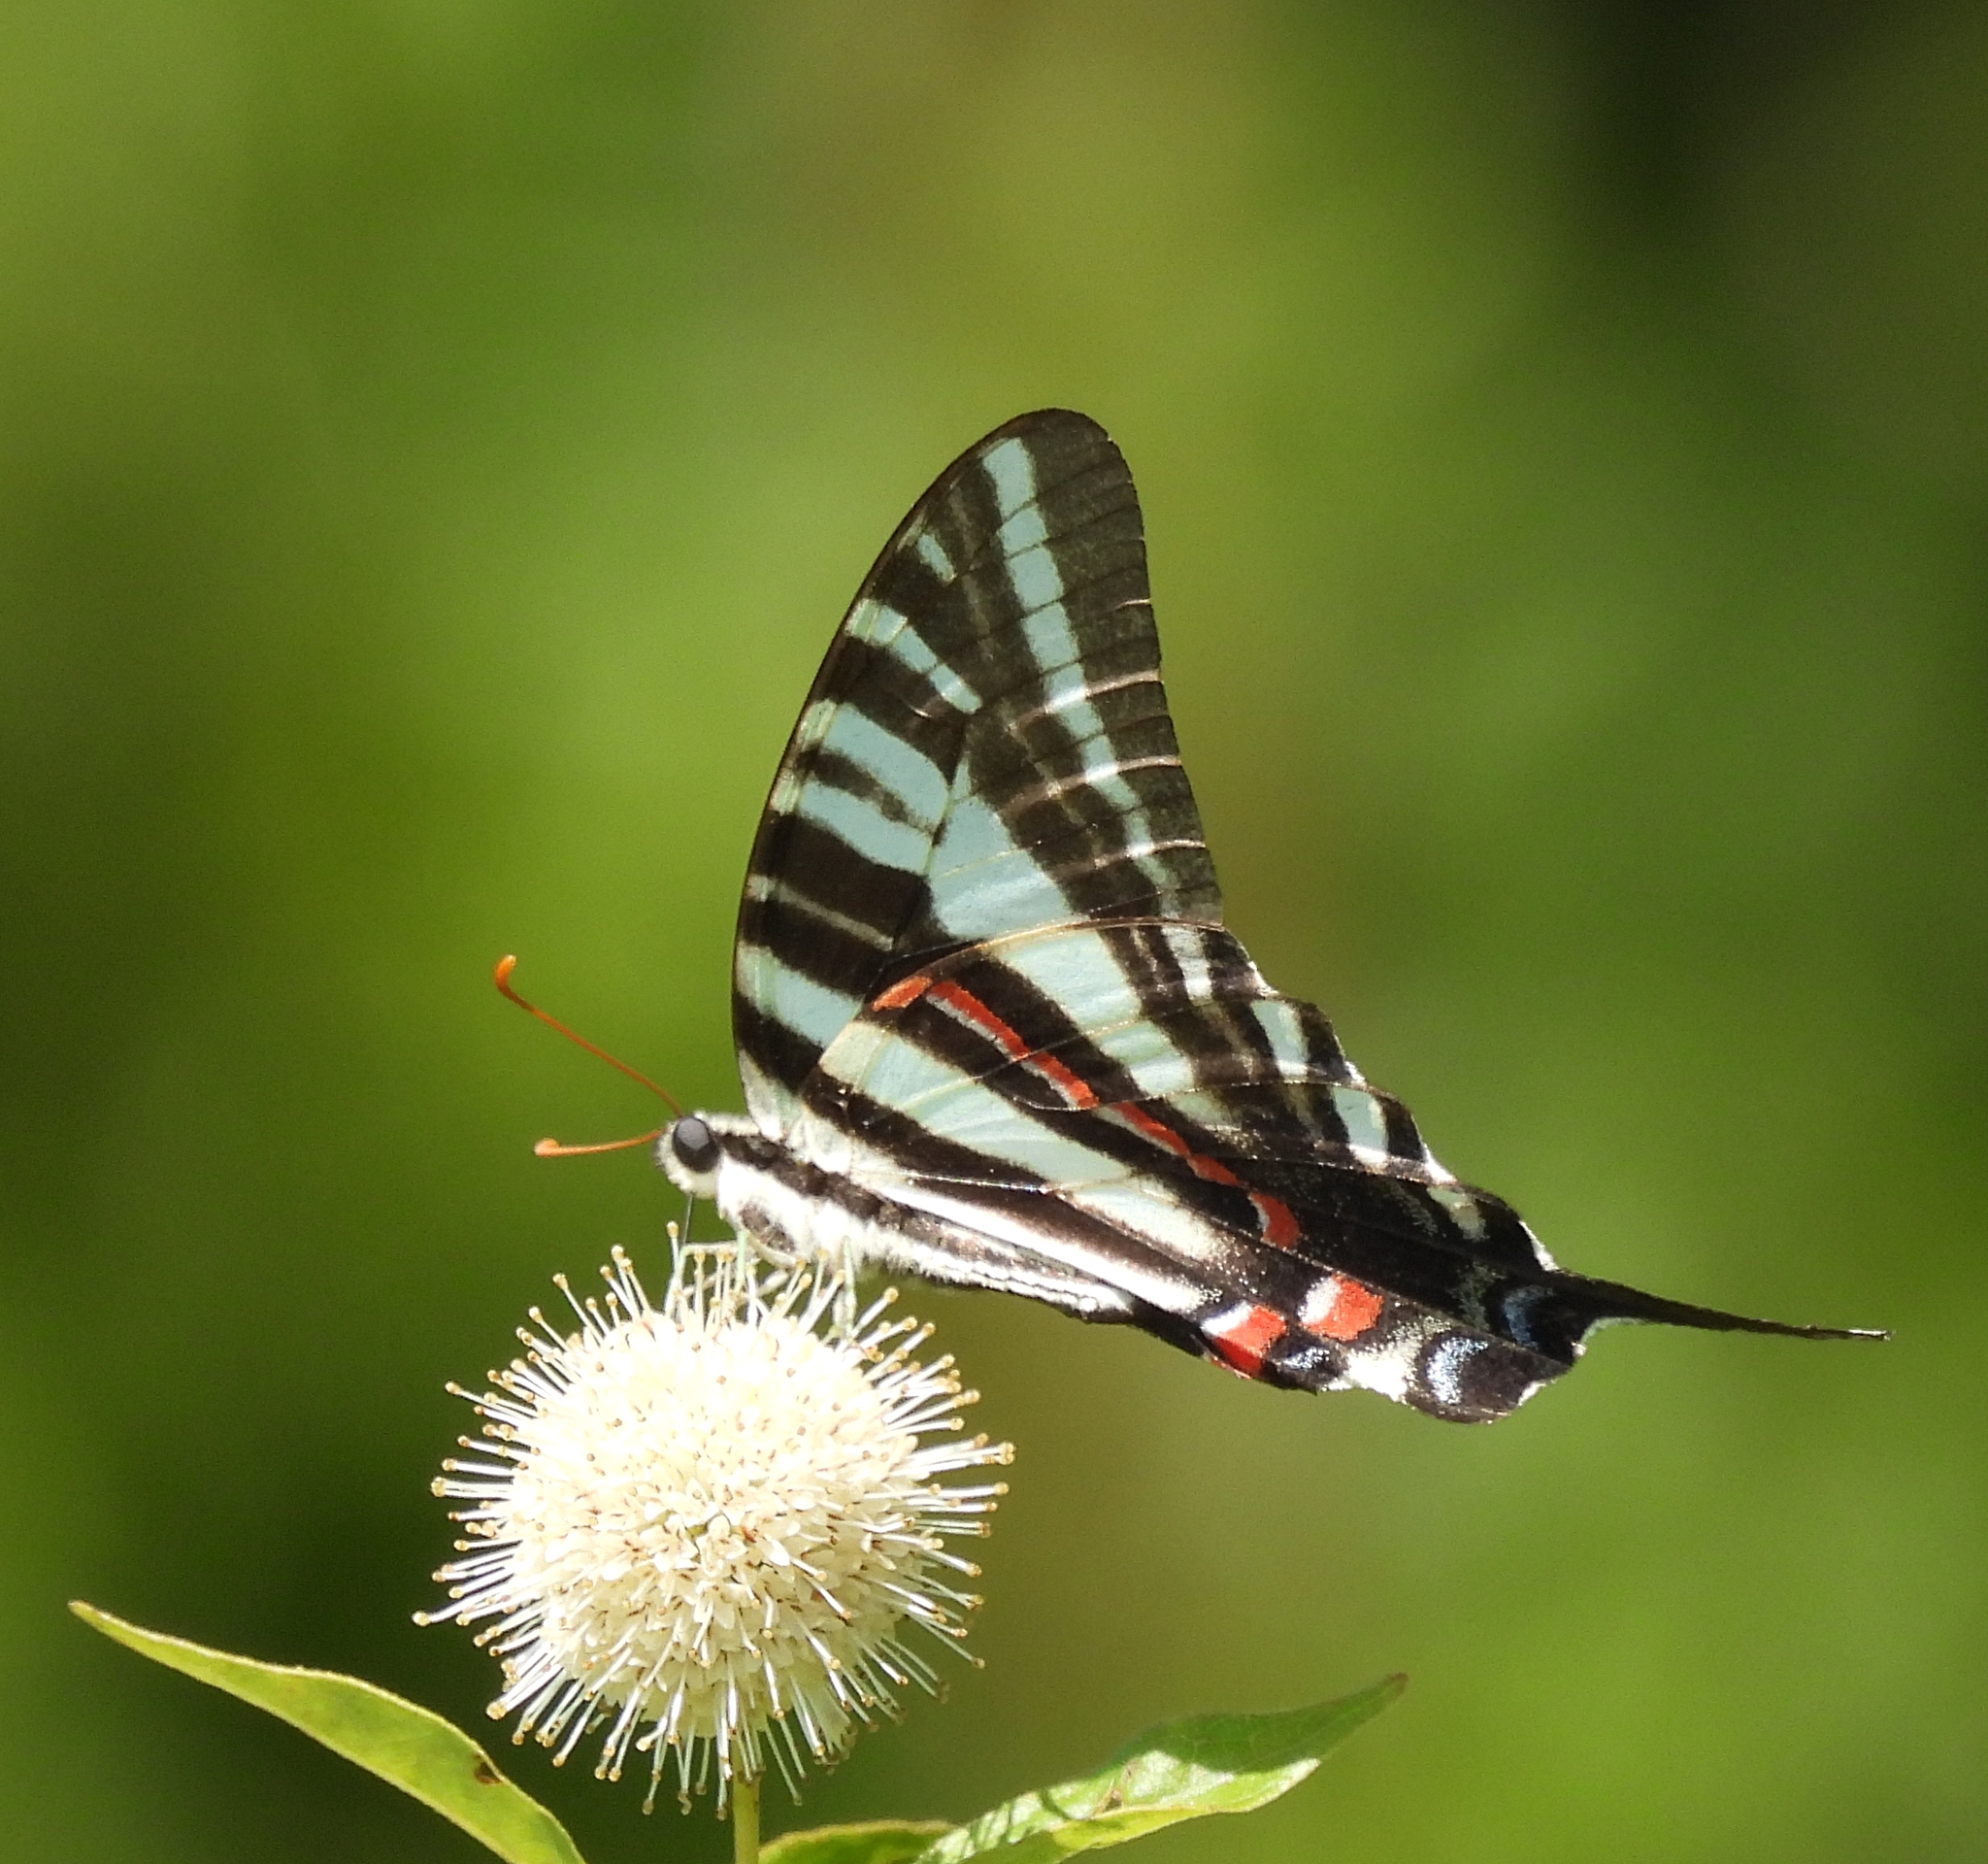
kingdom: Animalia
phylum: Arthropoda
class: Insecta
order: Lepidoptera
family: Papilionidae
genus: Protographium
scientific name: Protographium marcellus
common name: Zebra swallowtail
